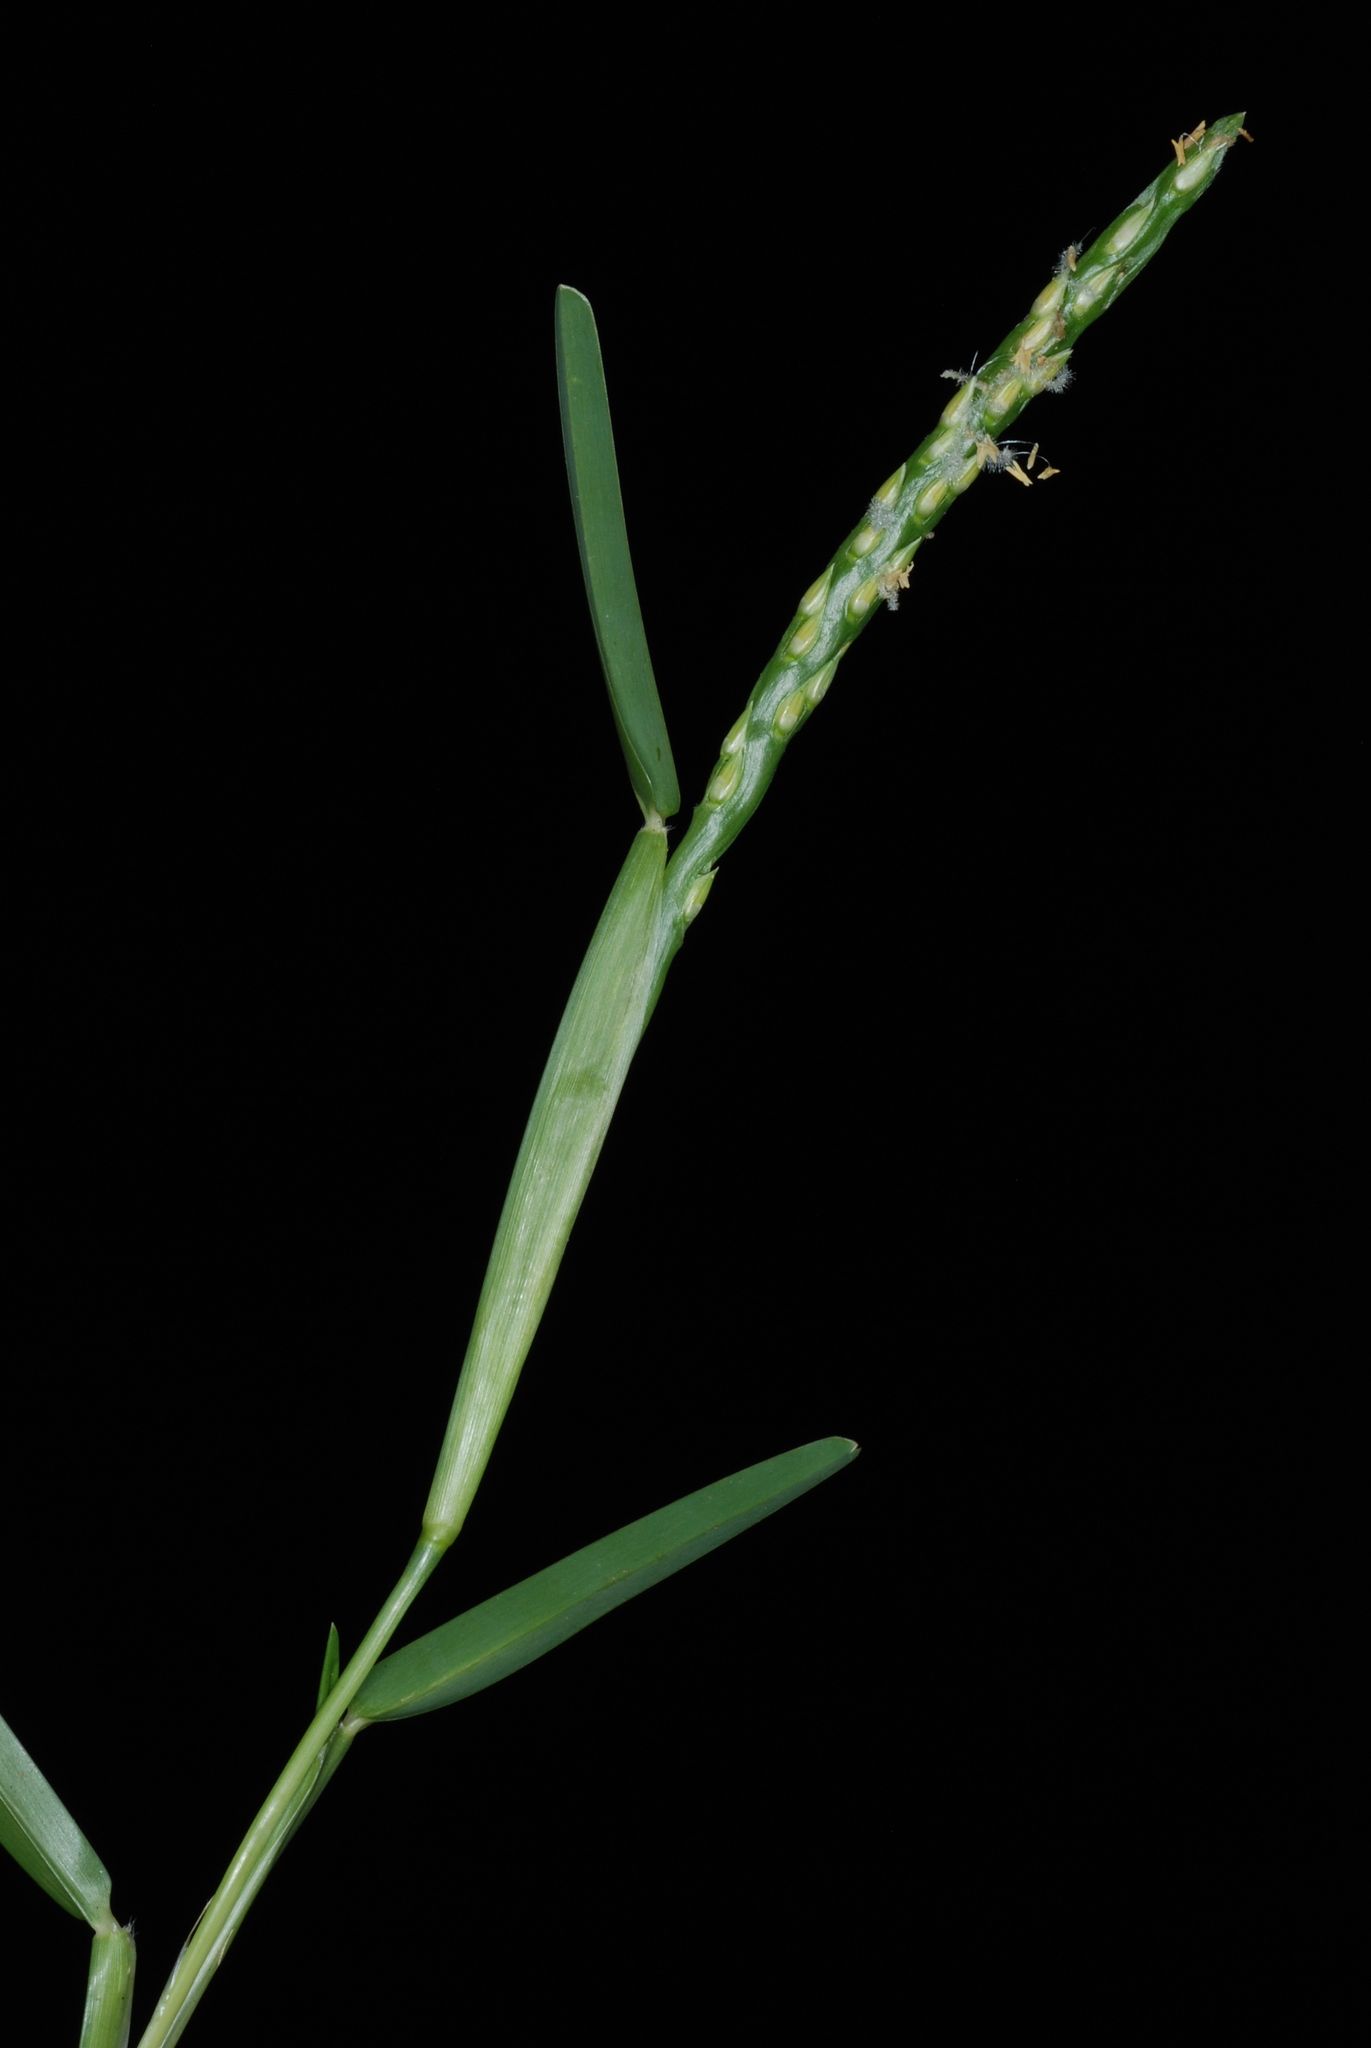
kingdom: Plantae
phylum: Tracheophyta
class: Liliopsida
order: Poales
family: Poaceae
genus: Stenotaphrum
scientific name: Stenotaphrum secundatum
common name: St. augustine grass
